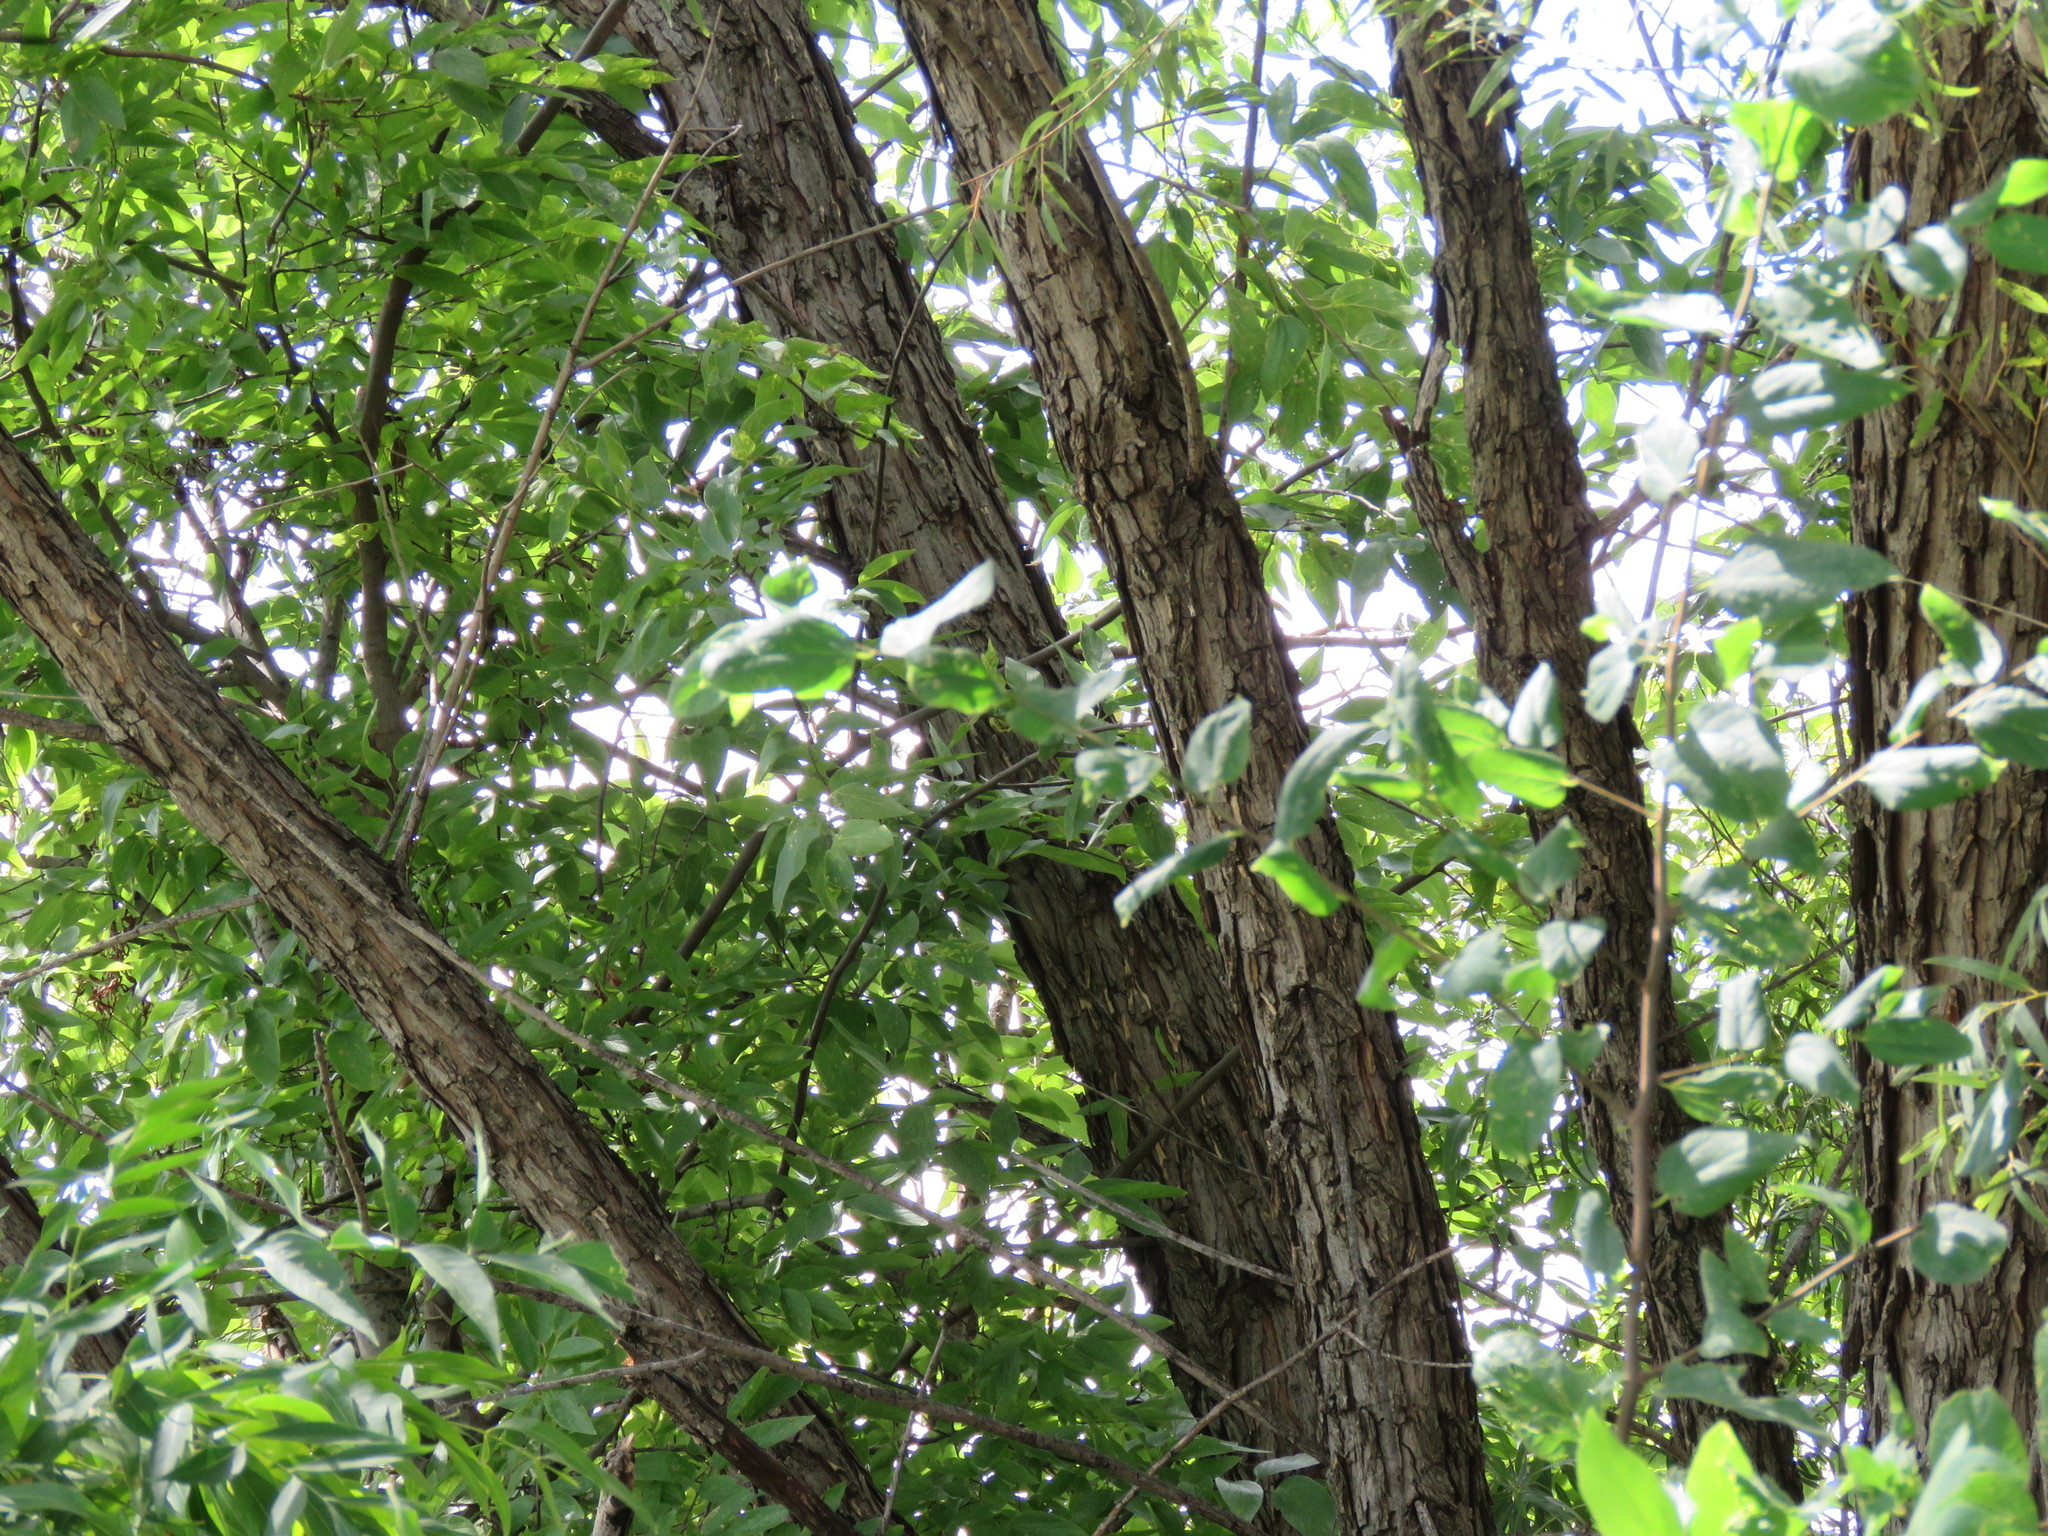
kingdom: Plantae
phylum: Tracheophyta
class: Magnoliopsida
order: Malpighiales
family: Salicaceae
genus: Salix
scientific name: Salix nigra
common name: Black willow
